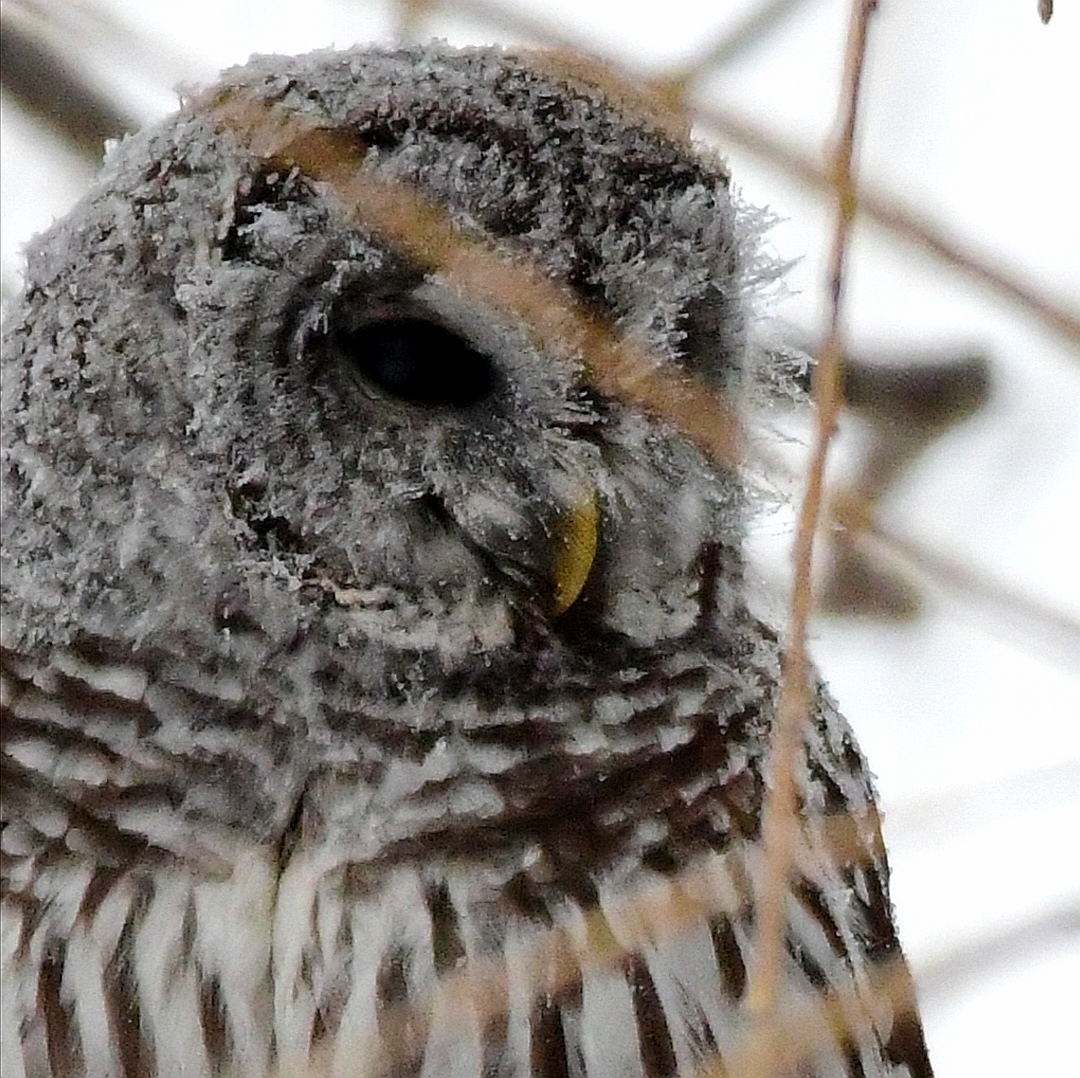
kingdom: Animalia
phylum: Chordata
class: Aves
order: Strigiformes
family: Strigidae
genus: Strix
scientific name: Strix varia
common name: Barred owl
